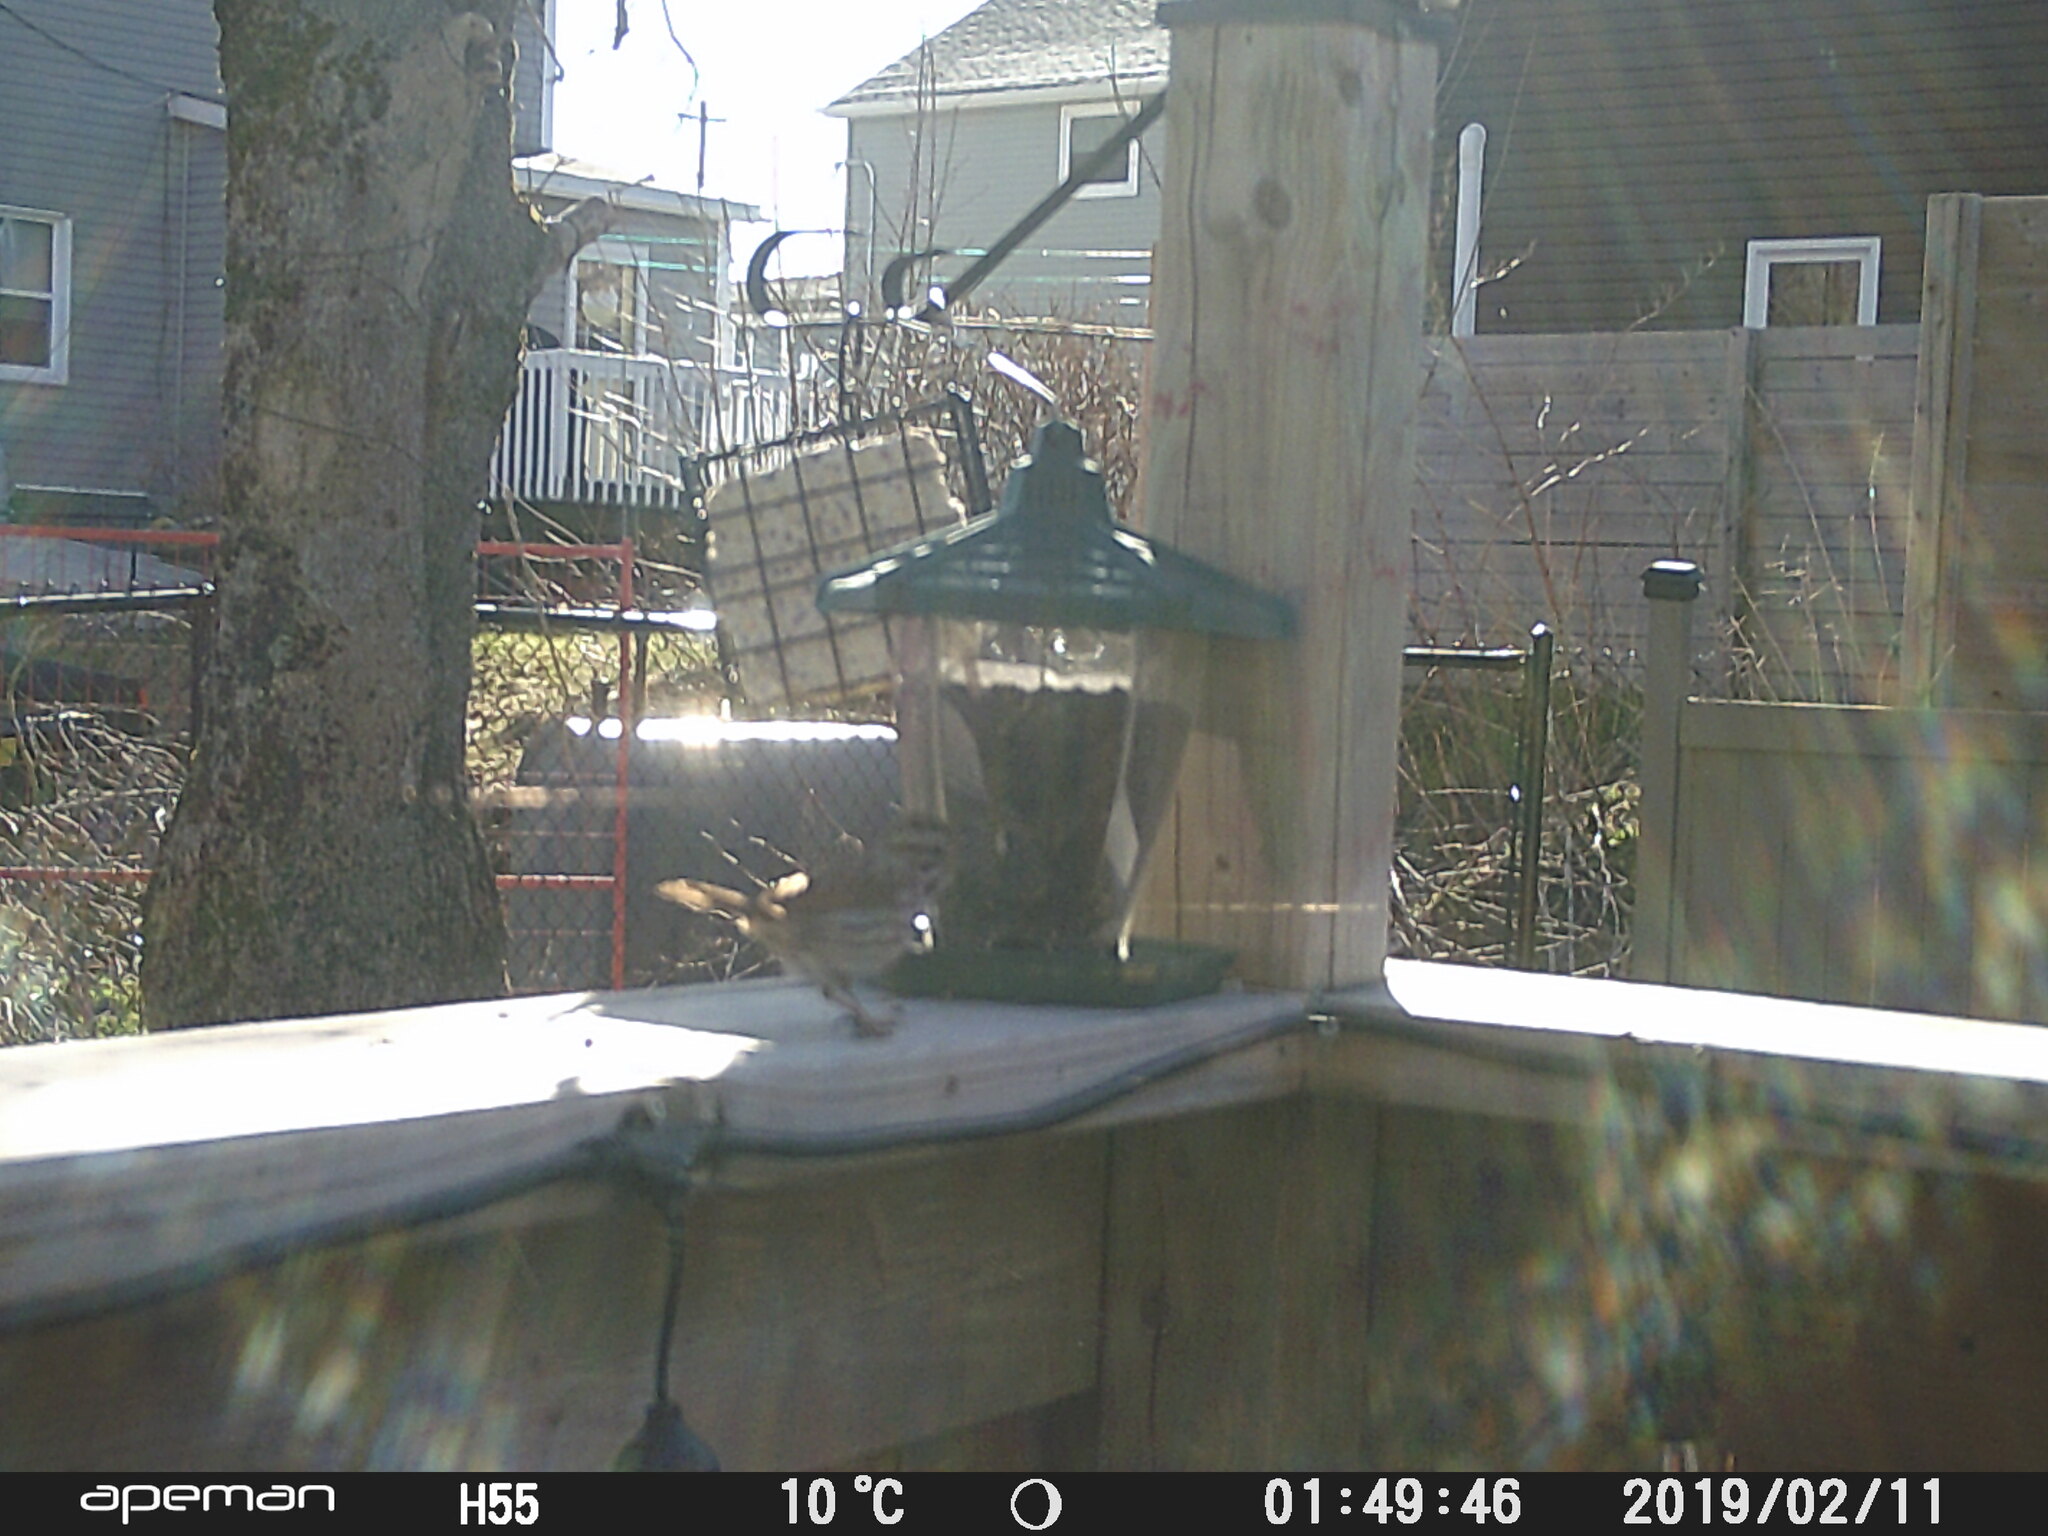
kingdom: Animalia
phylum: Chordata
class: Aves
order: Passeriformes
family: Passerellidae
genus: Melospiza
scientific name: Melospiza melodia
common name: Song sparrow
